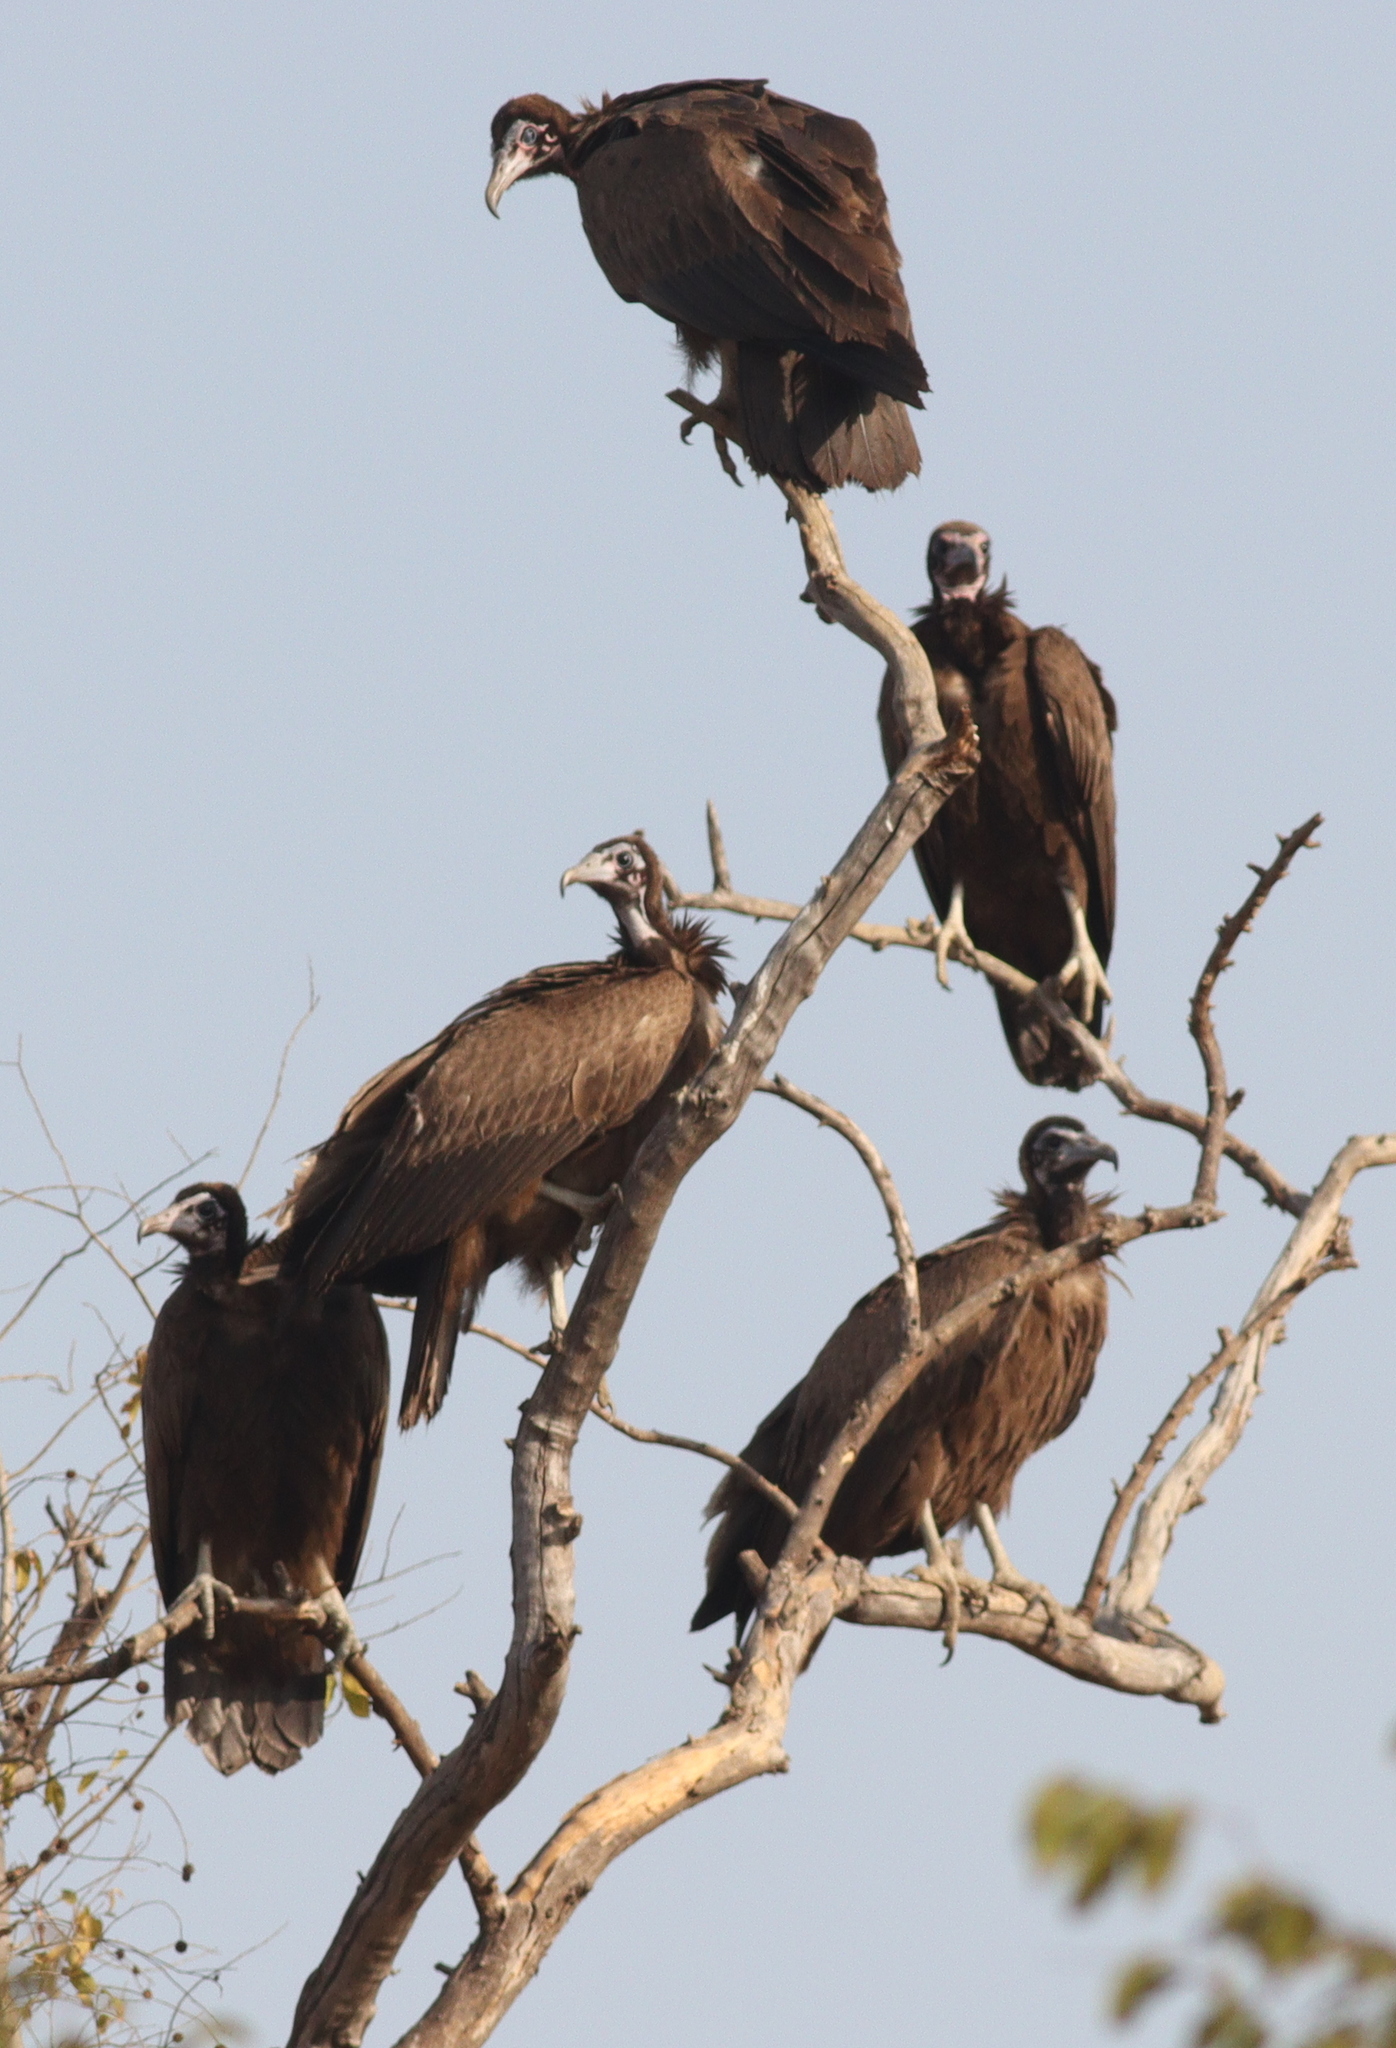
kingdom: Animalia
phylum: Chordata
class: Aves
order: Accipitriformes
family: Accipitridae
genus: Necrosyrtes
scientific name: Necrosyrtes monachus
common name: Hooded vulture
